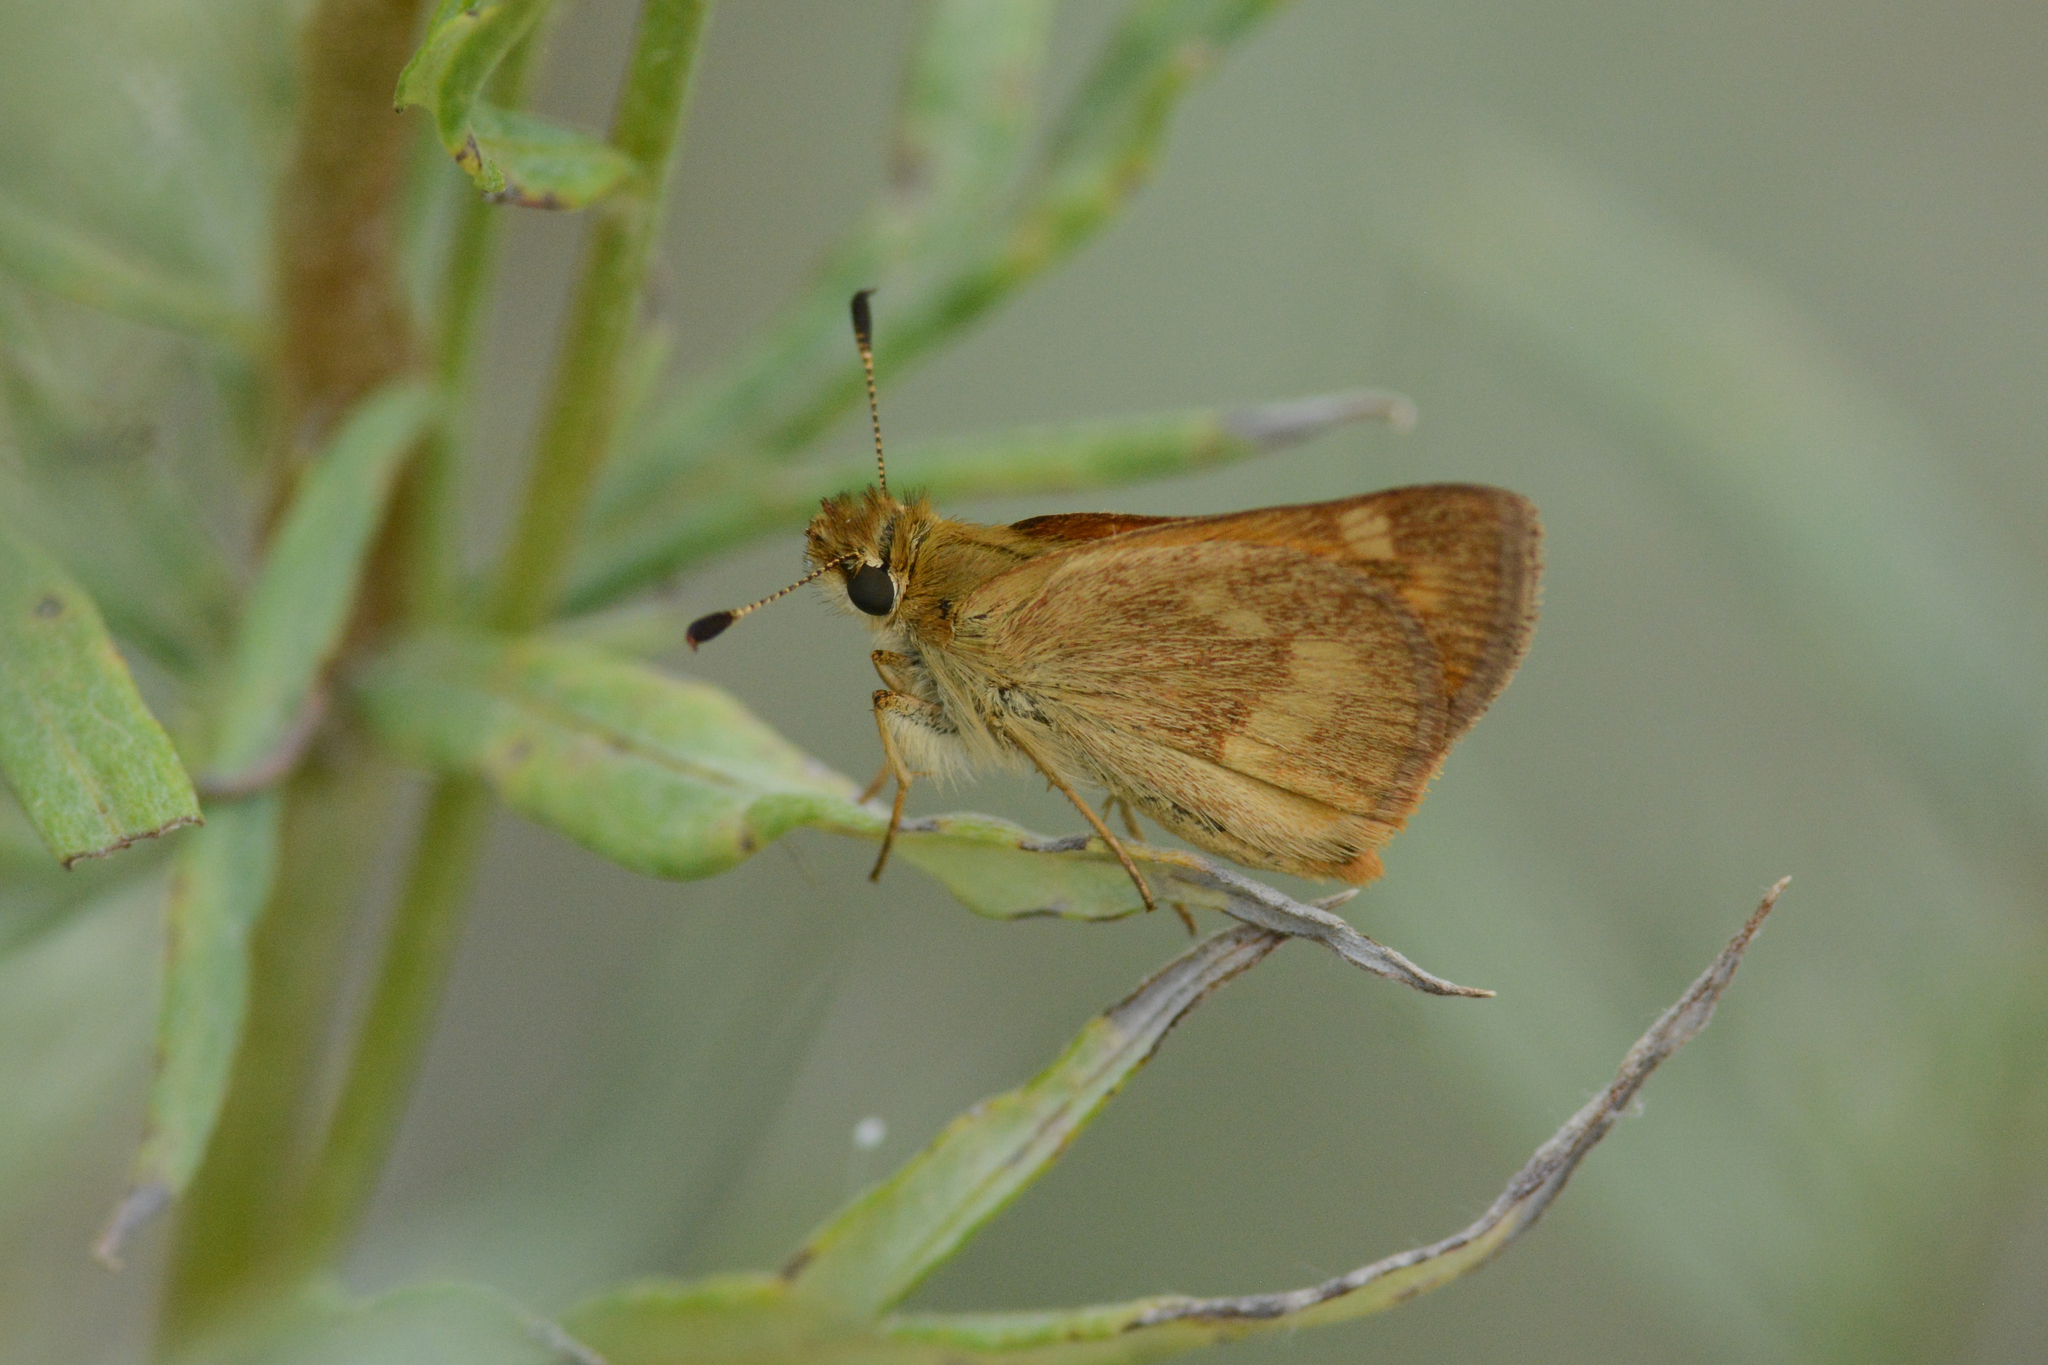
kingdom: Animalia
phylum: Arthropoda
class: Insecta
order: Lepidoptera
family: Hesperiidae
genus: Ochlodes
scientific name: Ochlodes sylvanoides
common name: Woodland skipper
